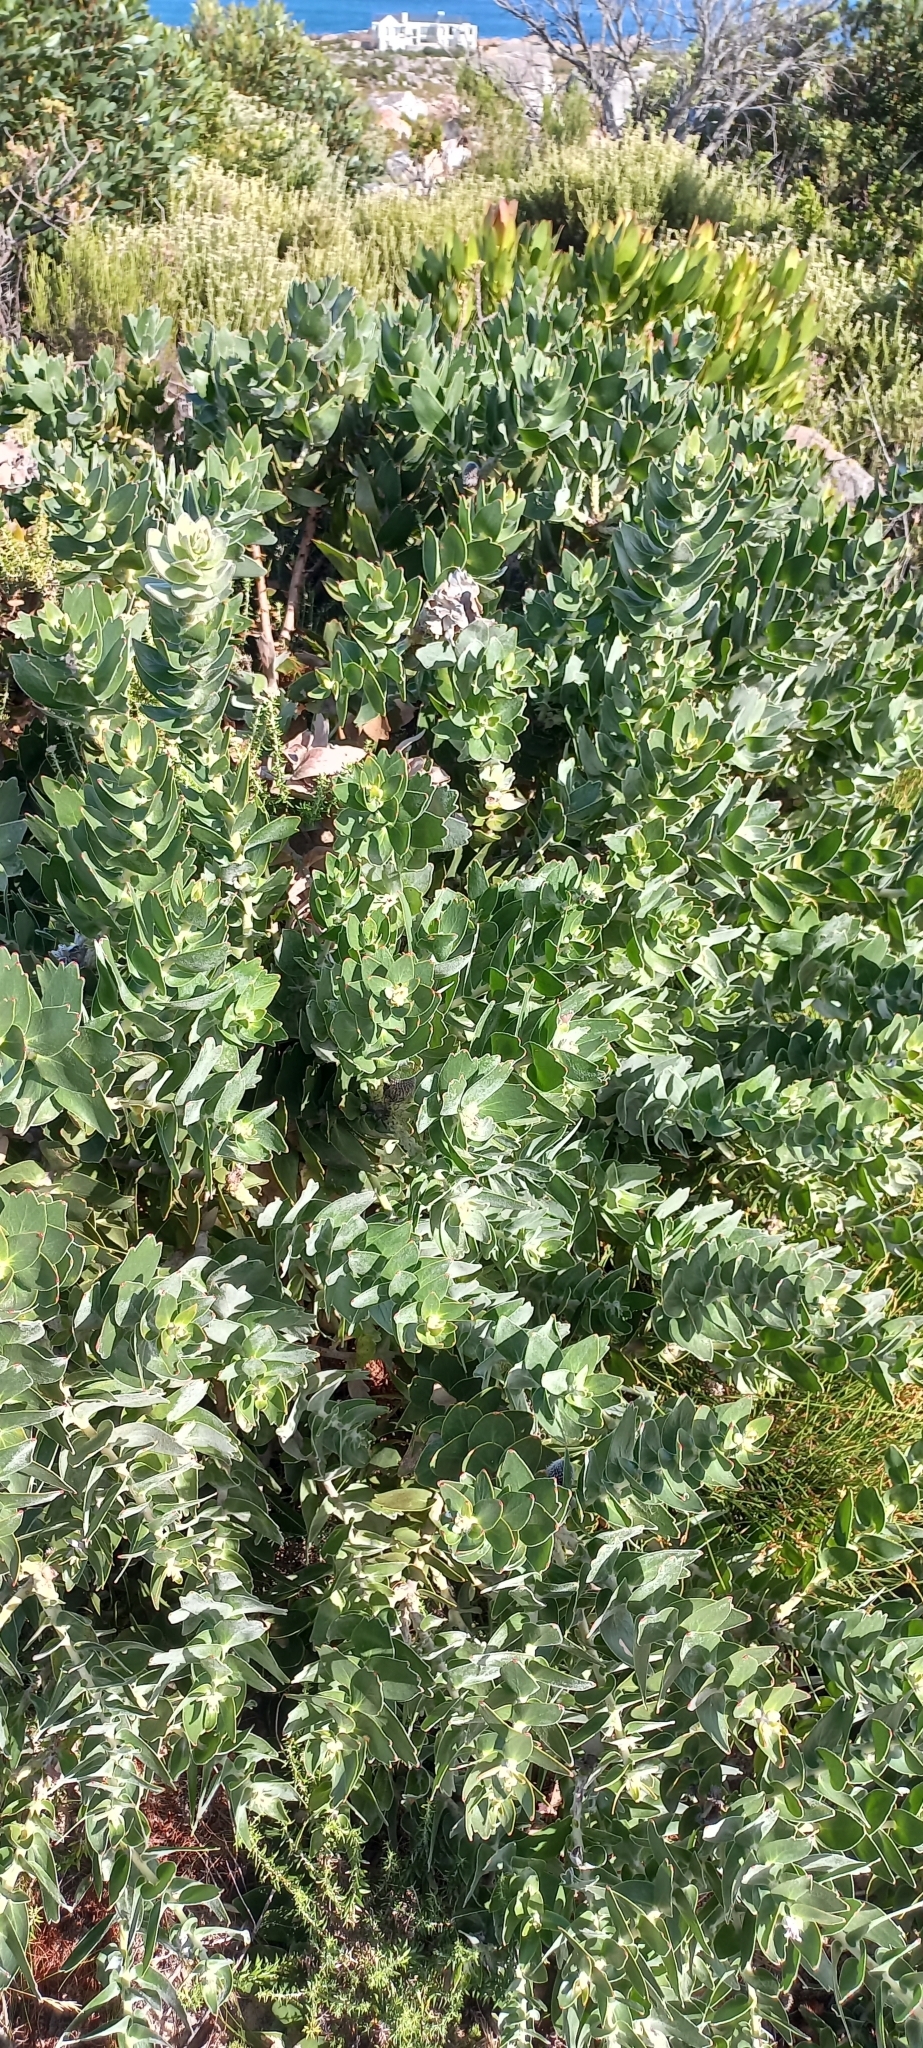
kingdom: Plantae
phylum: Tracheophyta
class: Magnoliopsida
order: Proteales
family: Proteaceae
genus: Leucospermum
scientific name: Leucospermum patersonii
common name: False tree pincushion
